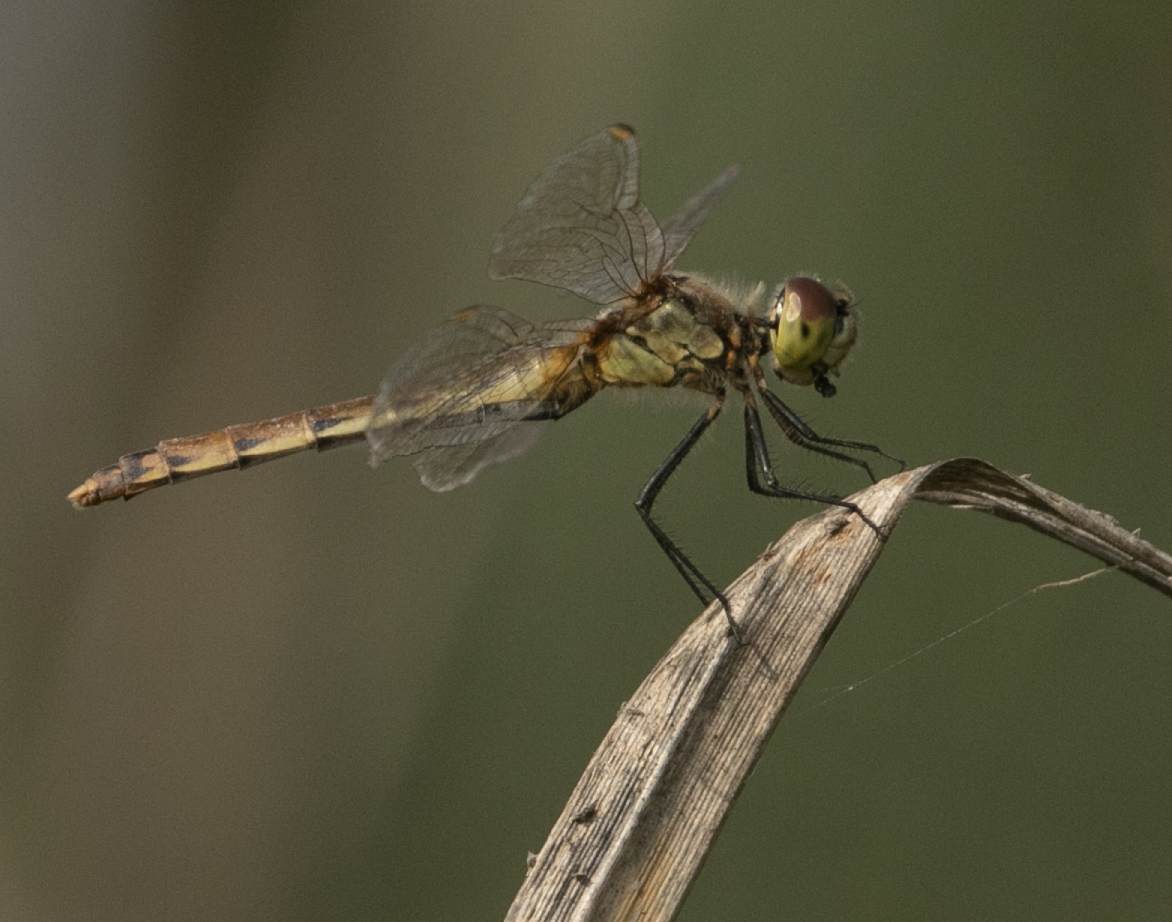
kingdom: Animalia
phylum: Arthropoda
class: Insecta
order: Odonata
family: Libellulidae
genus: Sympetrum
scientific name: Sympetrum depressiusculum
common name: Spotted darter
